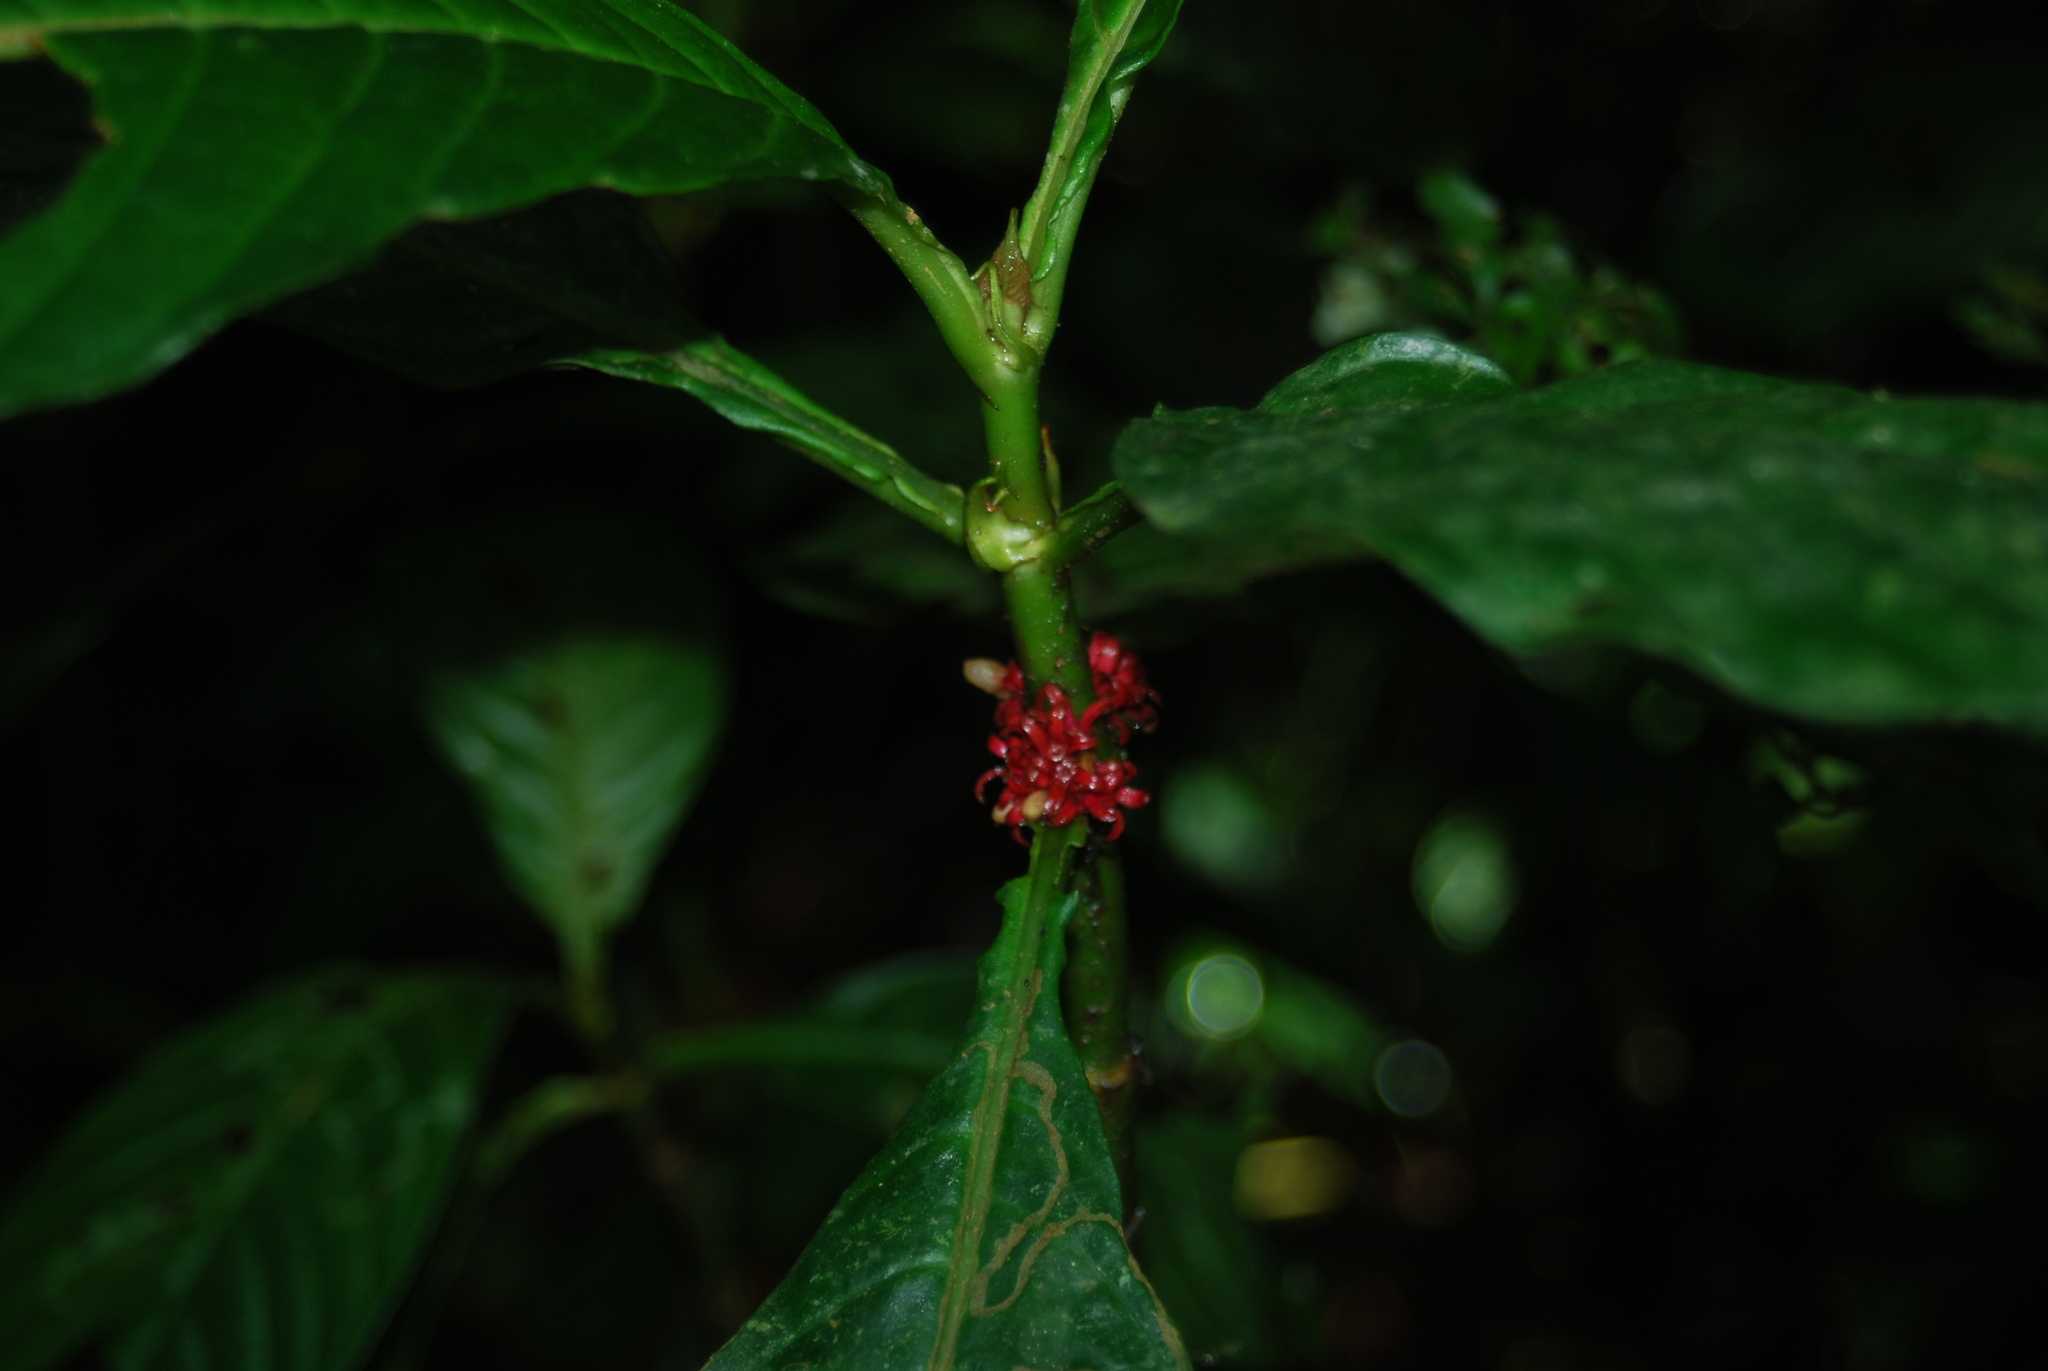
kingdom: Plantae
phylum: Tracheophyta
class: Magnoliopsida
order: Gentianales
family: Rubiaceae
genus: Hoffmannia
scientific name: Hoffmannia congesta
